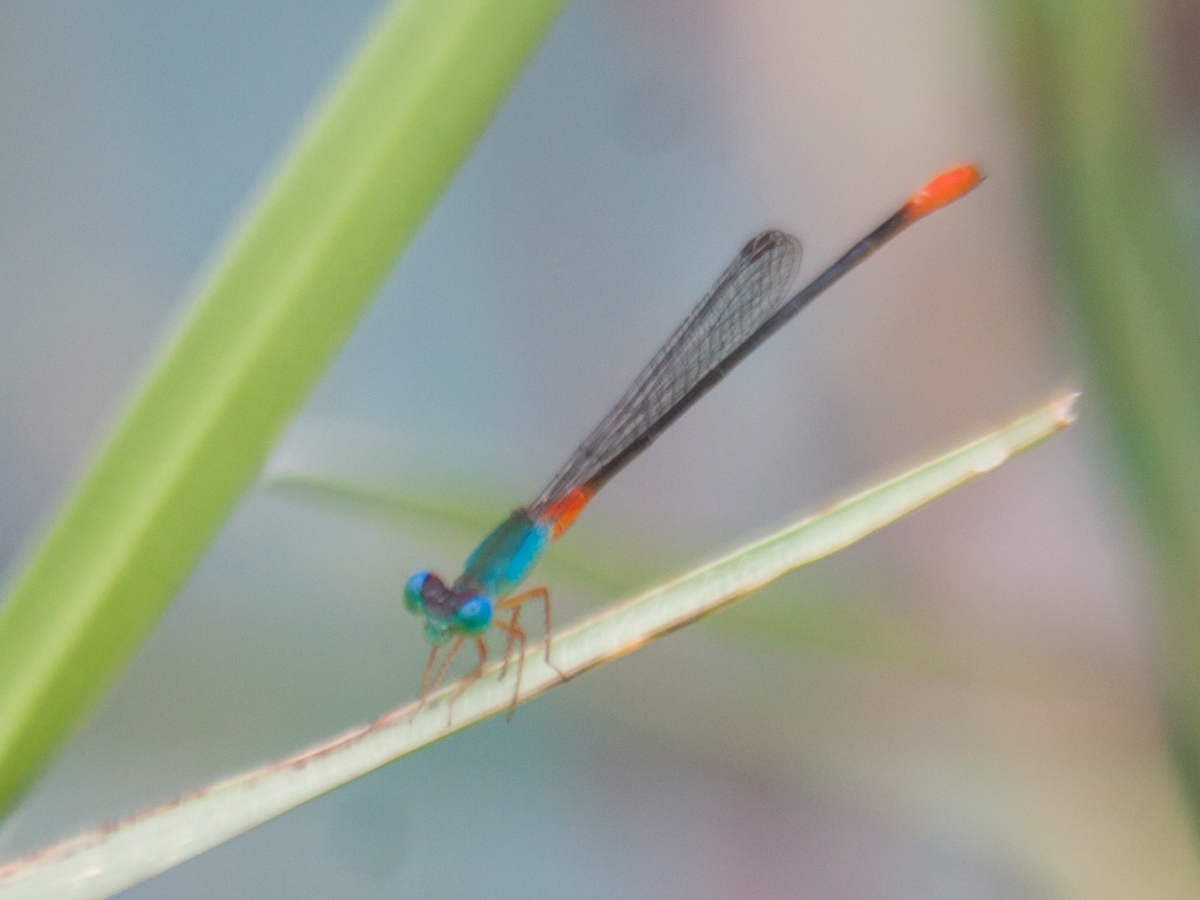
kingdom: Animalia
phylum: Arthropoda
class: Insecta
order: Odonata
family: Coenagrionidae
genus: Ceriagrion
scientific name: Ceriagrion cerinorubellum
